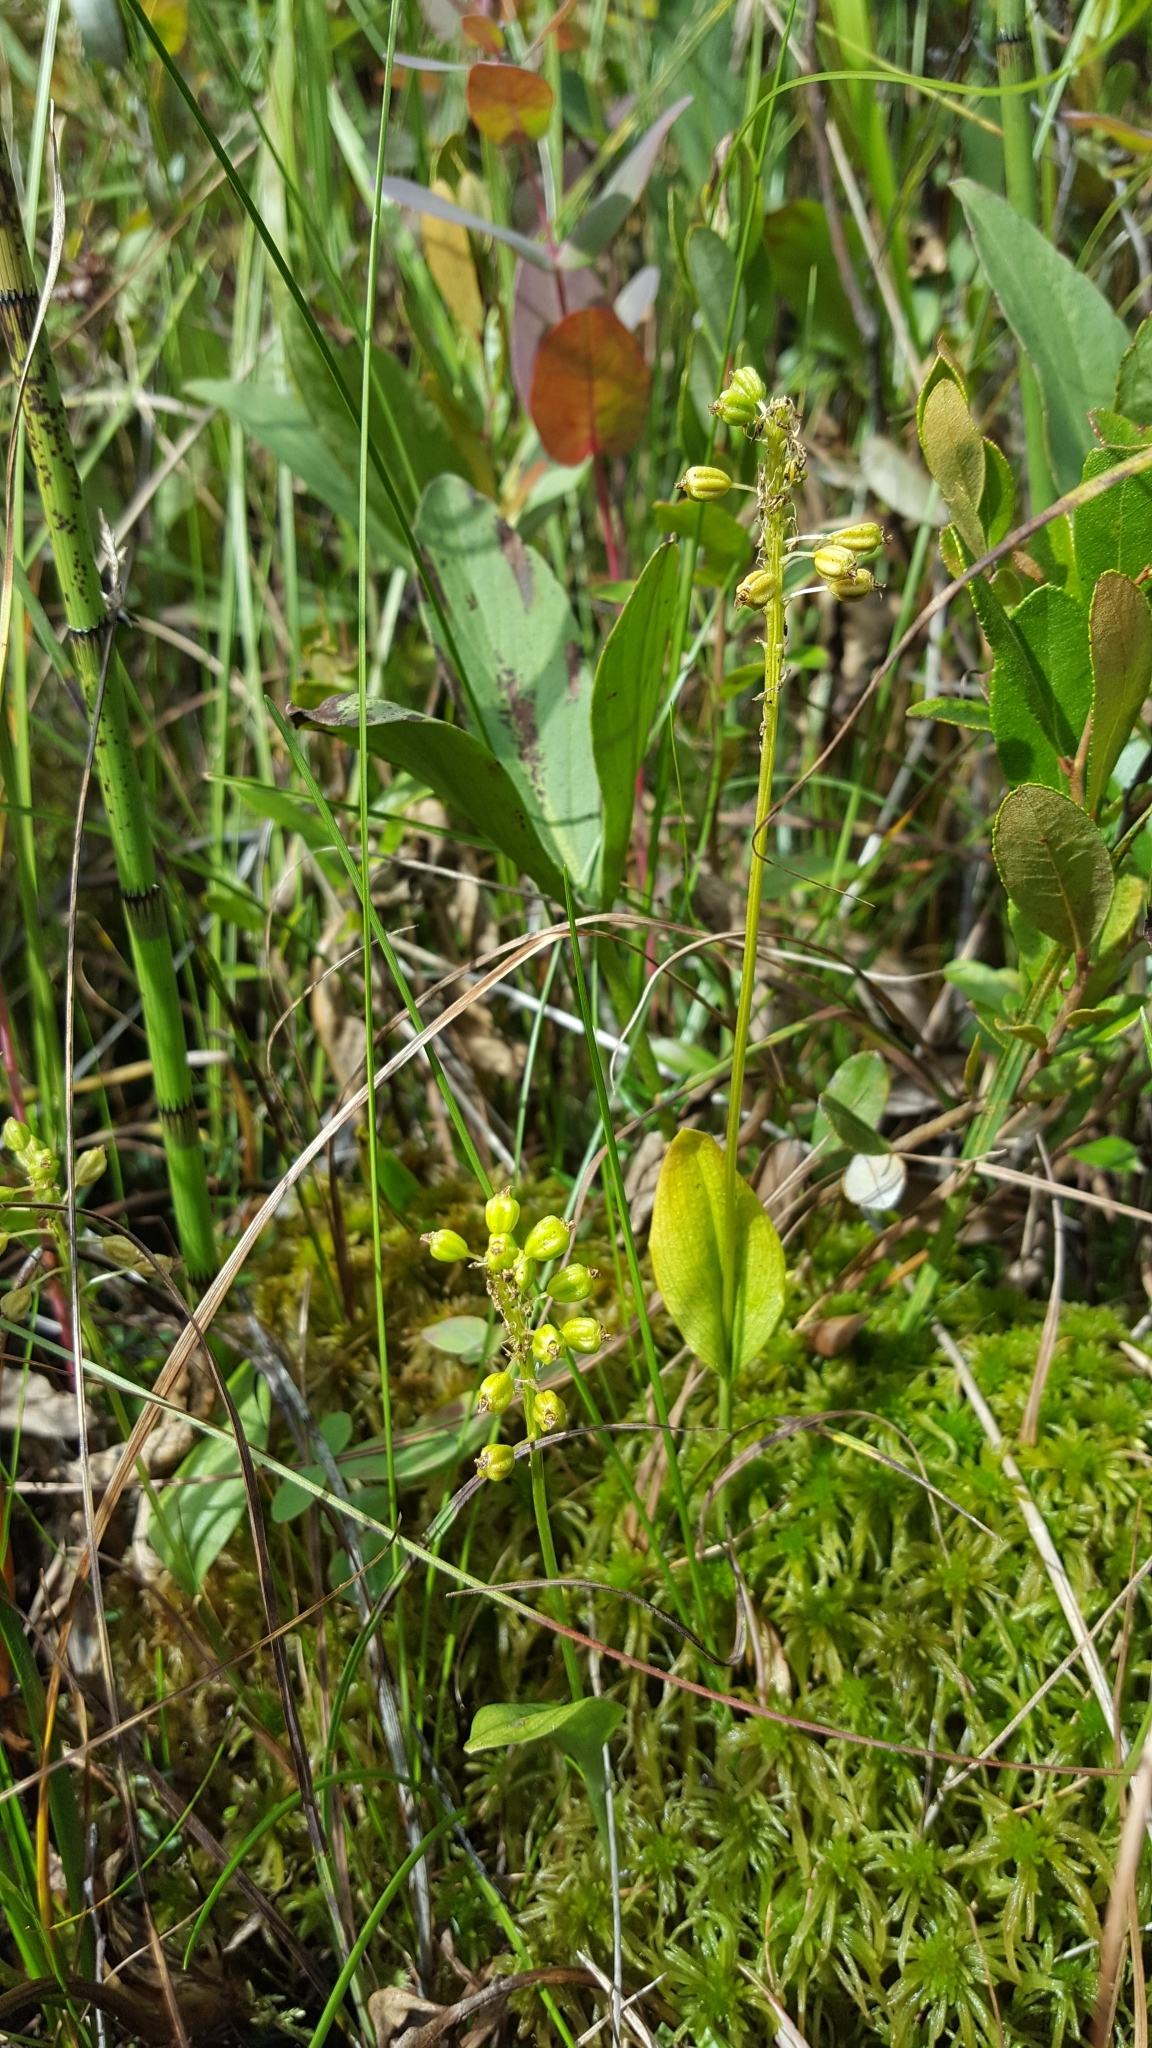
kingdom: Plantae
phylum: Tracheophyta
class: Liliopsida
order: Asparagales
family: Orchidaceae
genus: Malaxis
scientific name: Malaxis unifolia
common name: Green adder's-mouth
